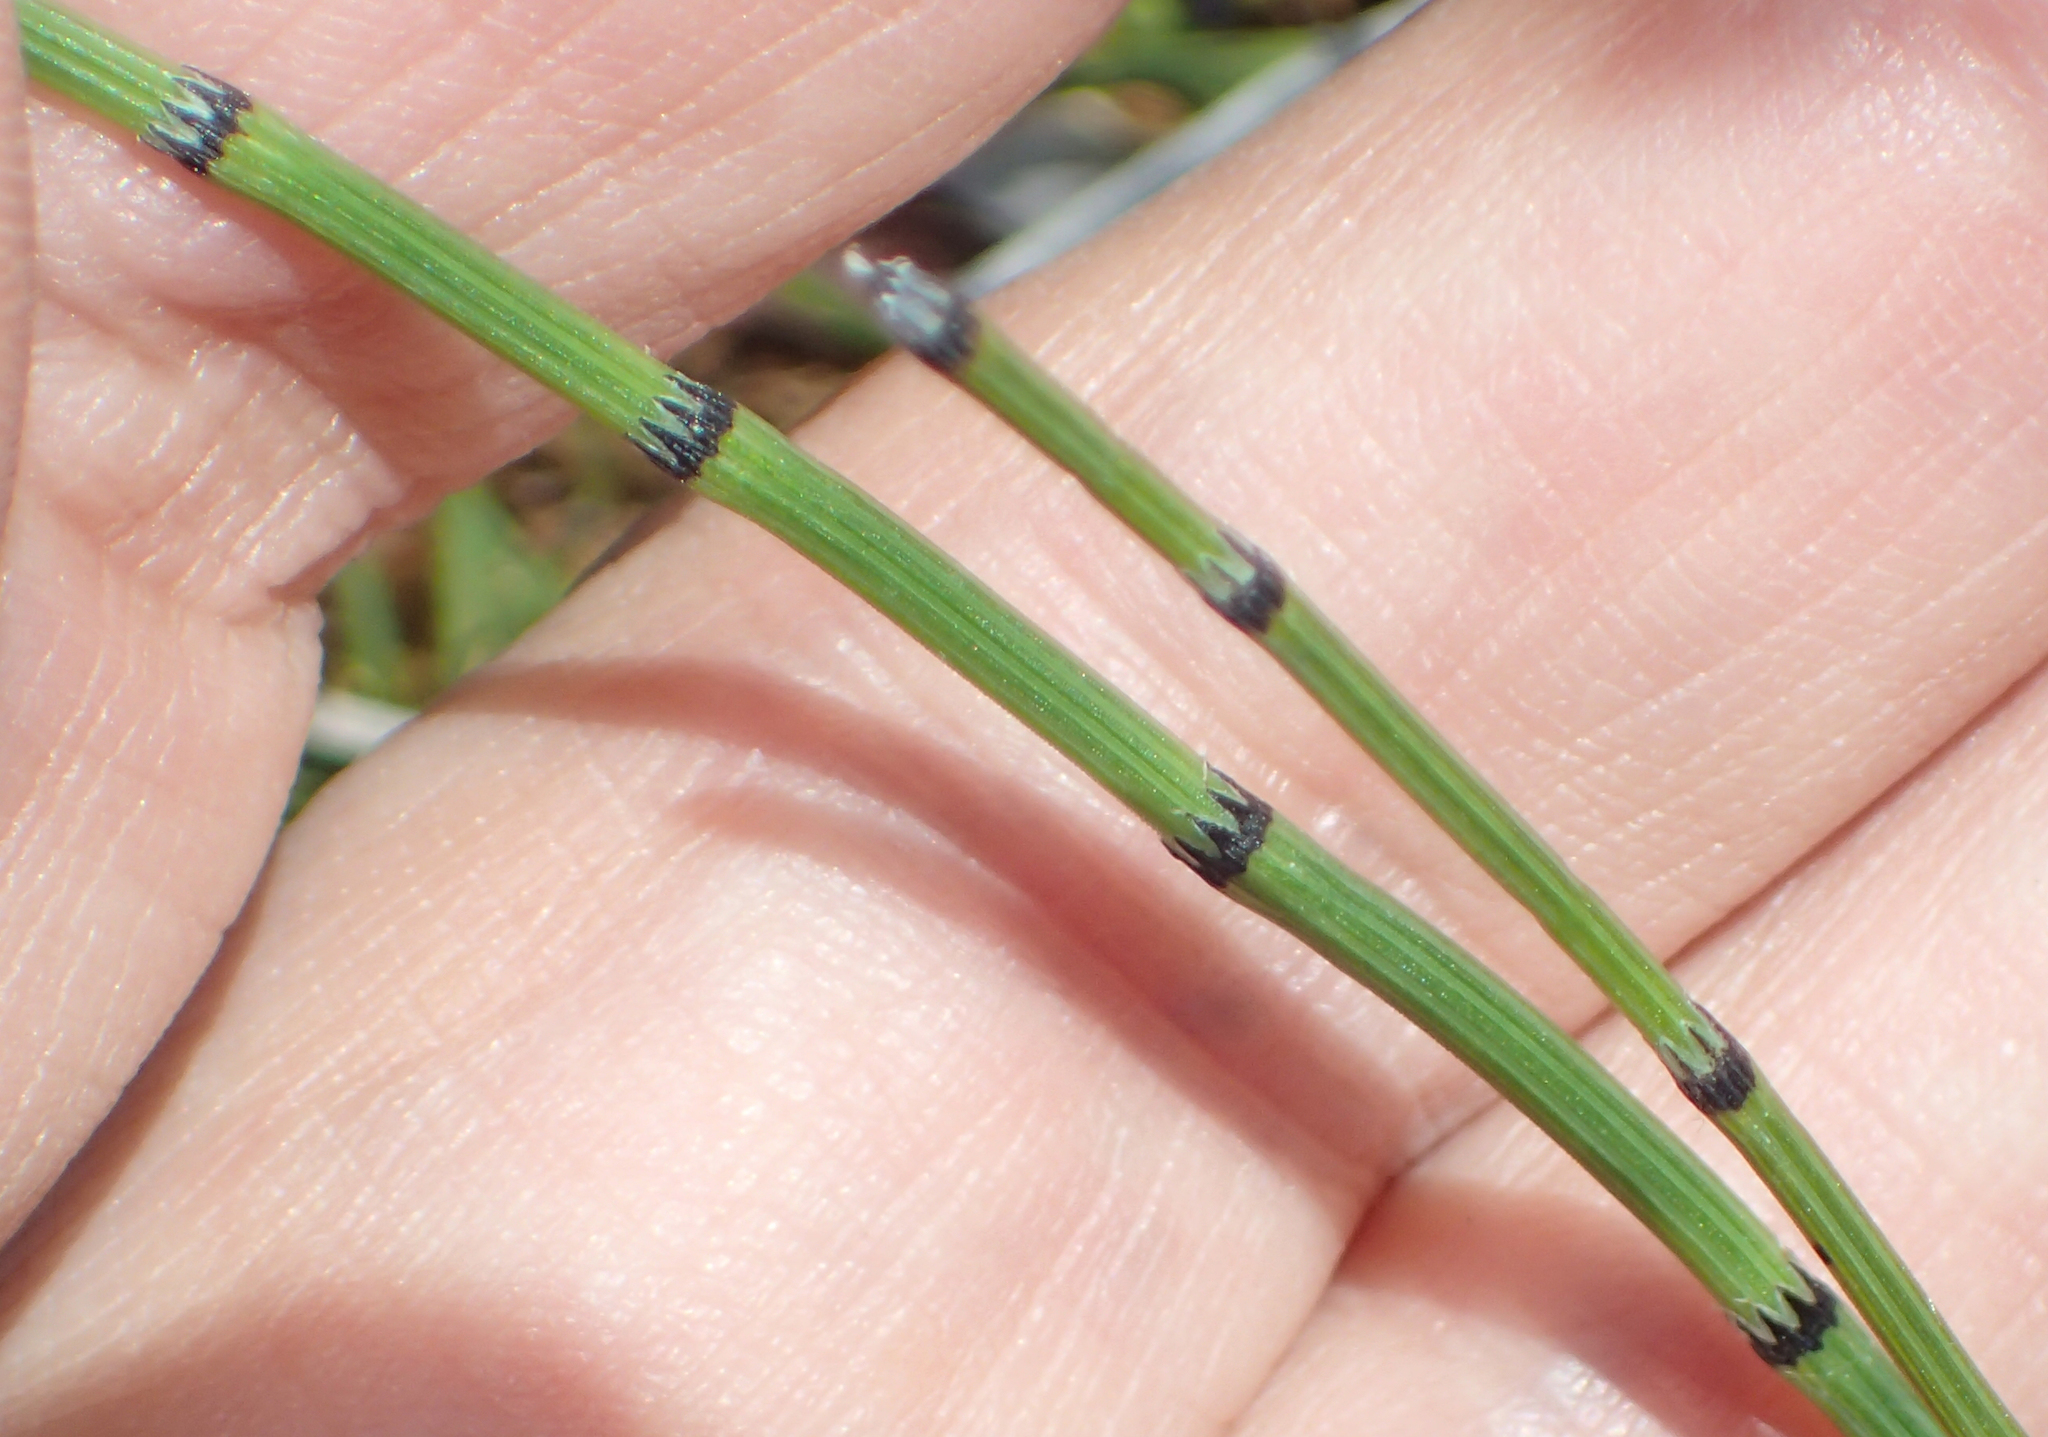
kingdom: Plantae
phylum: Tracheophyta
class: Polypodiopsida
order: Equisetales
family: Equisetaceae
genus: Equisetum
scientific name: Equisetum variegatum
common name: Variegated horsetail
